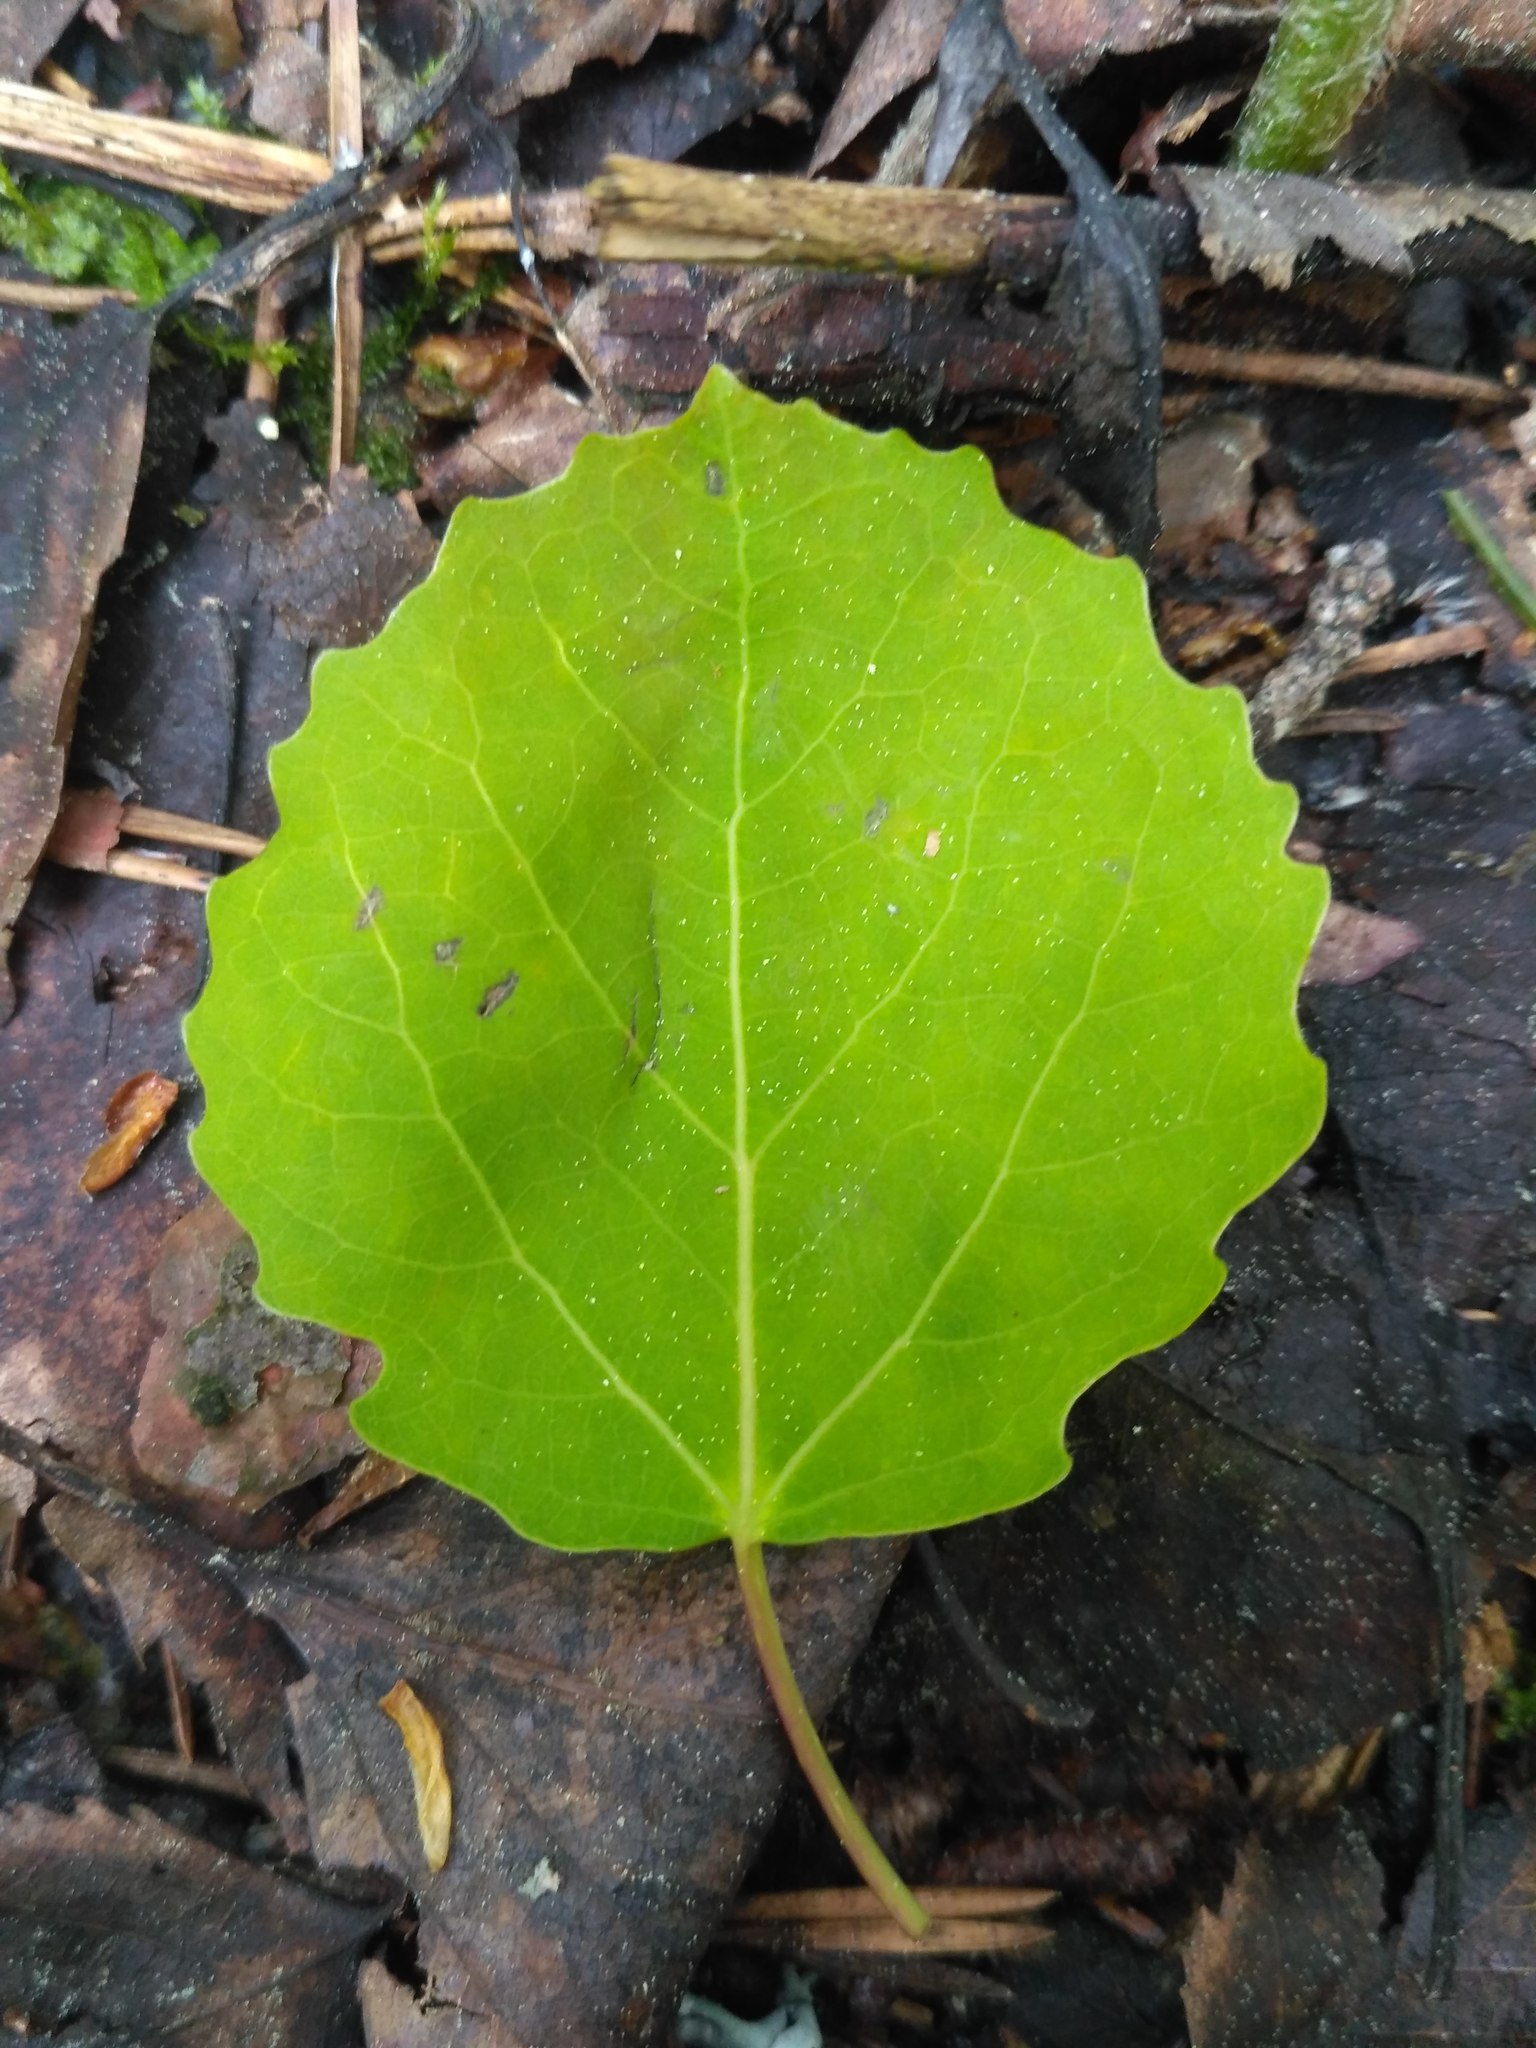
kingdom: Plantae
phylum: Tracheophyta
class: Magnoliopsida
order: Malpighiales
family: Salicaceae
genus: Populus
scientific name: Populus tremula
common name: European aspen
